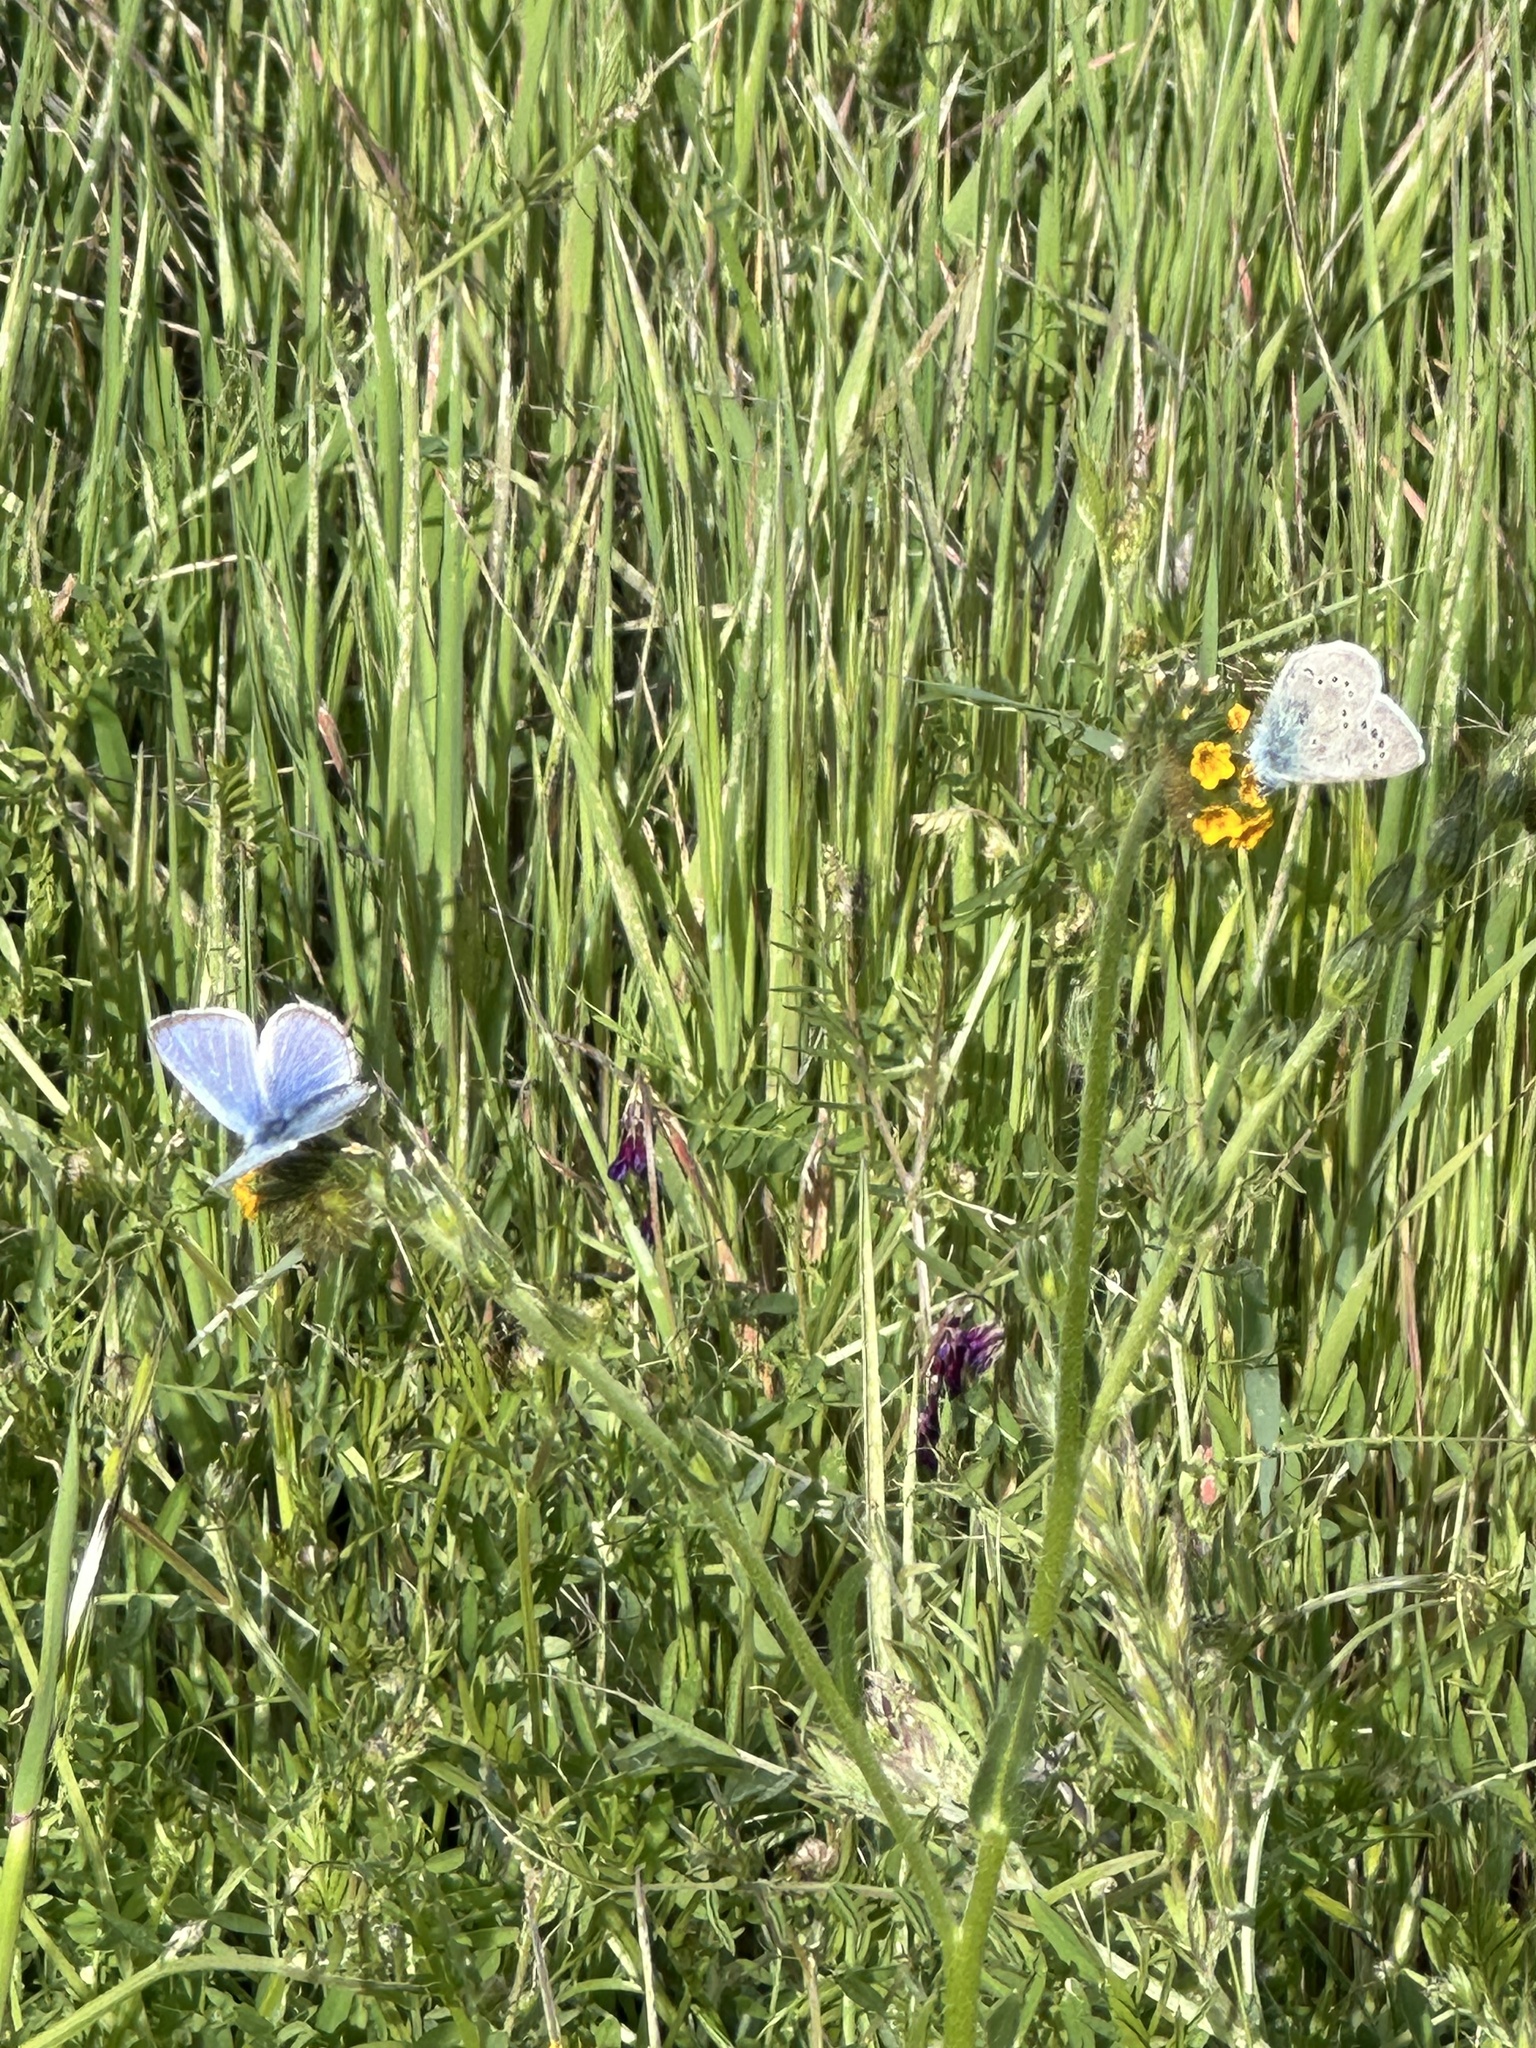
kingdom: Animalia
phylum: Arthropoda
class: Insecta
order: Lepidoptera
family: Lycaenidae
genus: Glaucopsyche
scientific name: Glaucopsyche lygdamus
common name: Silvery blue
